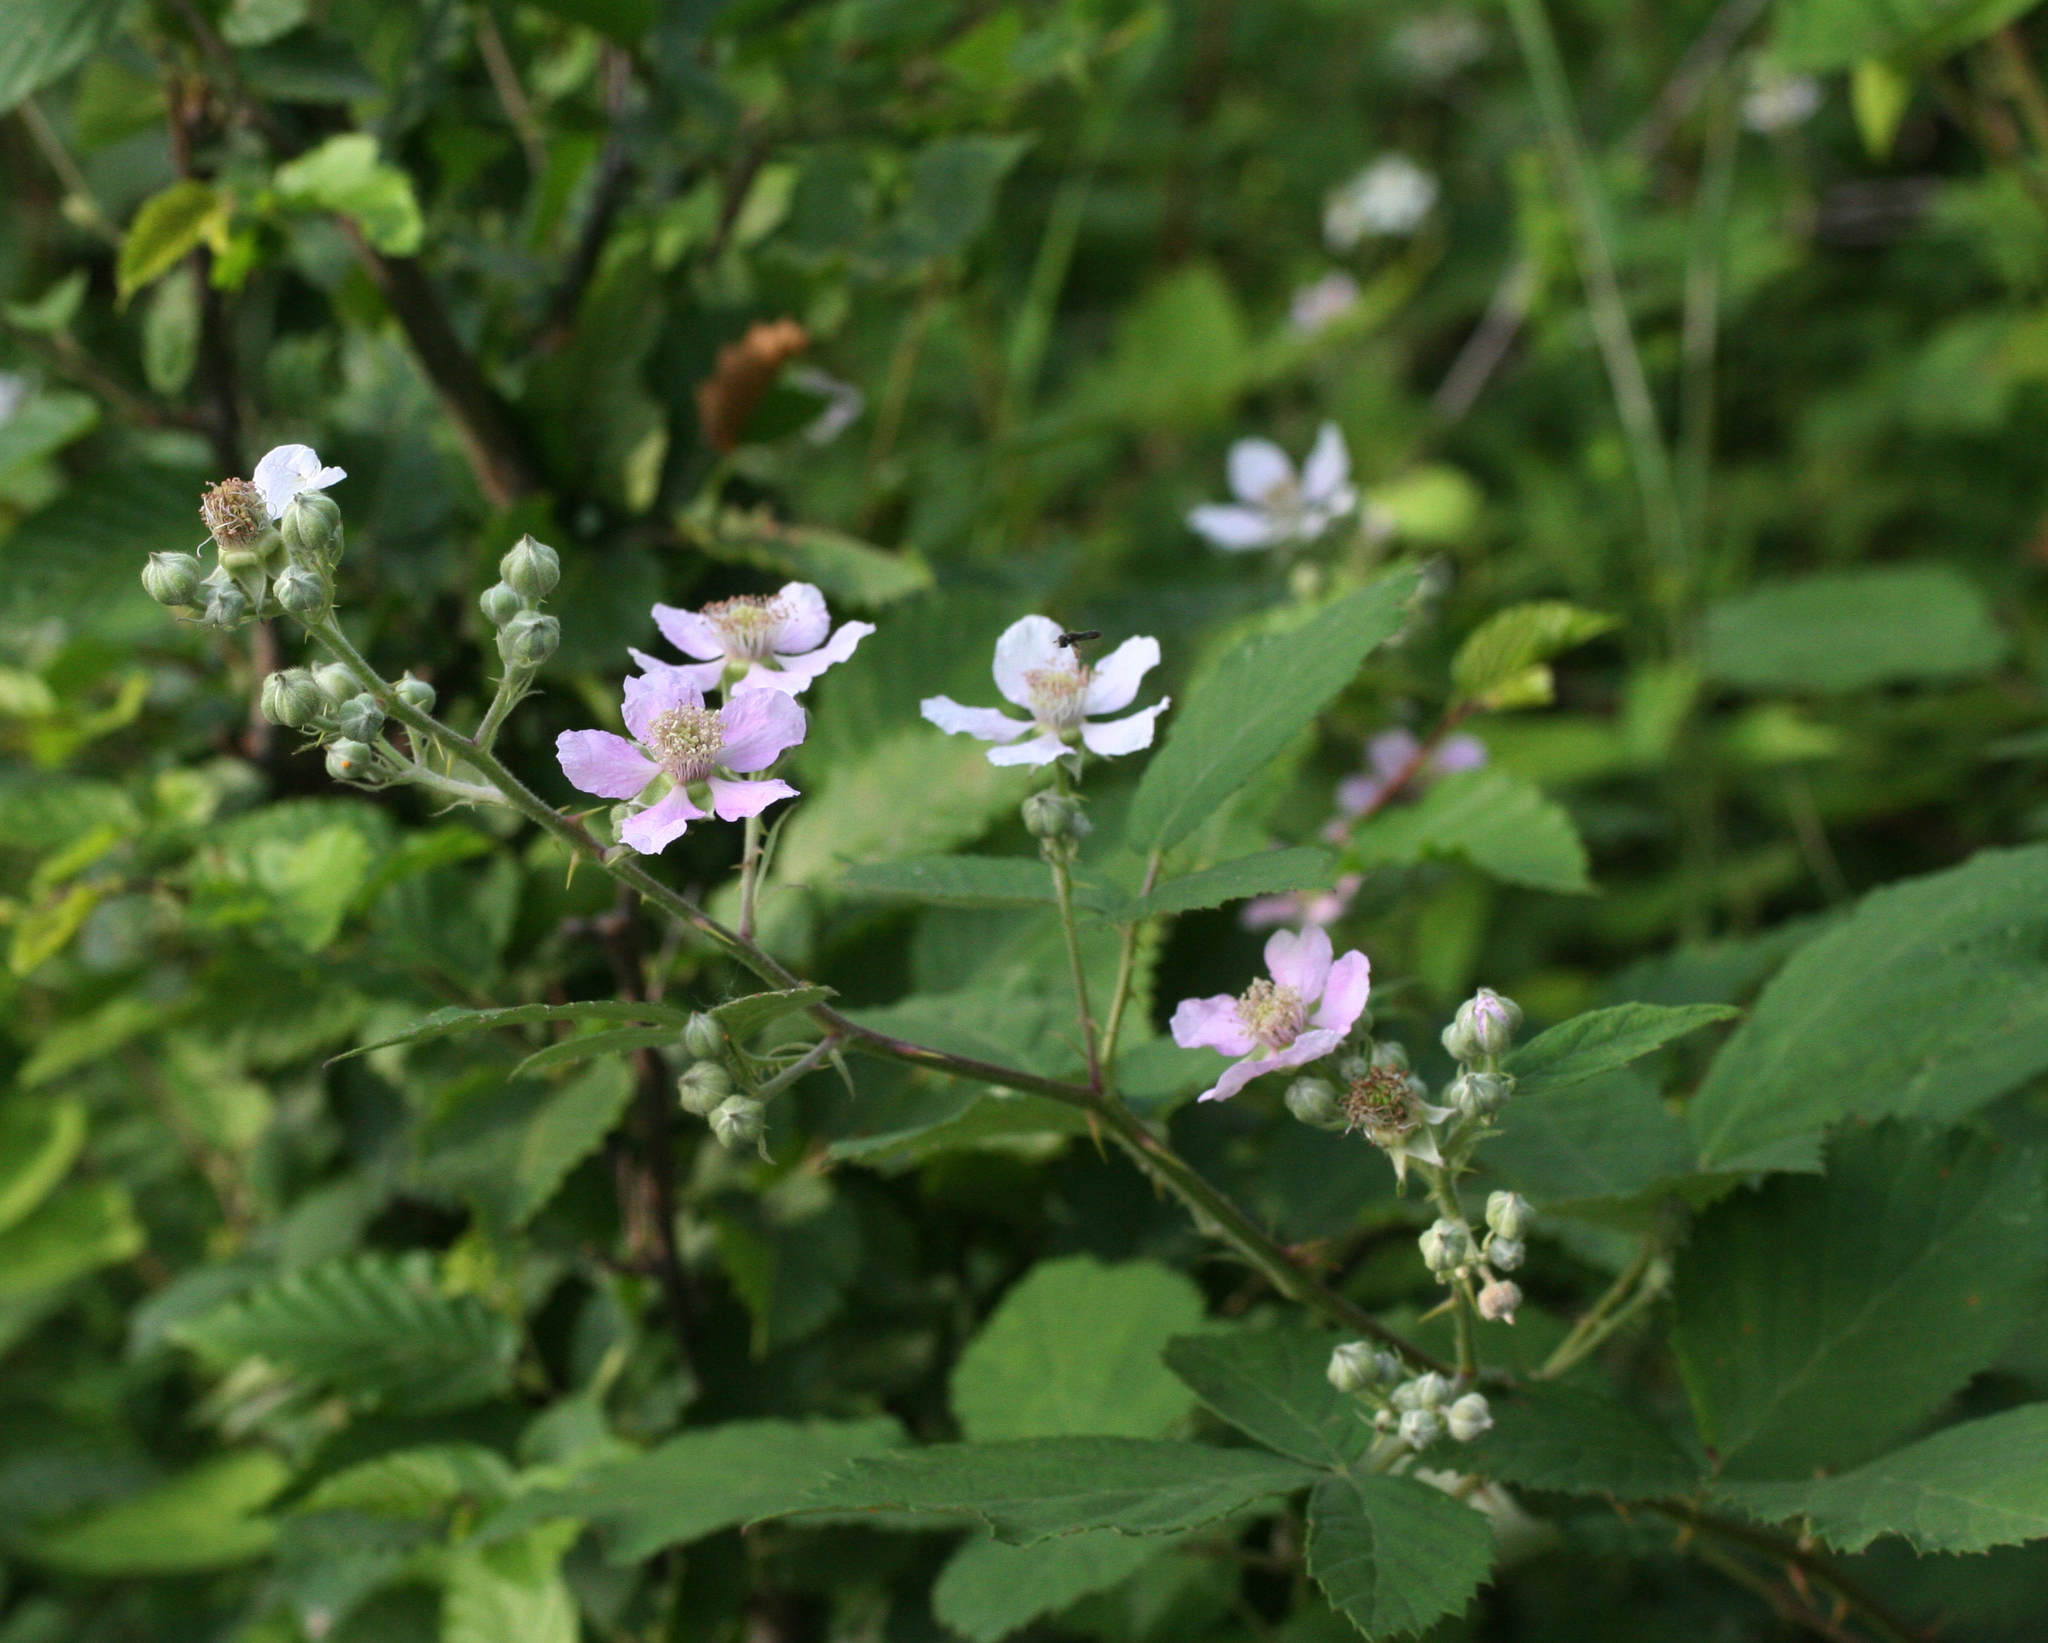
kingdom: Plantae
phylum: Tracheophyta
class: Magnoliopsida
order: Rosales
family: Rosaceae
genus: Rubus
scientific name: Rubus sanctus
